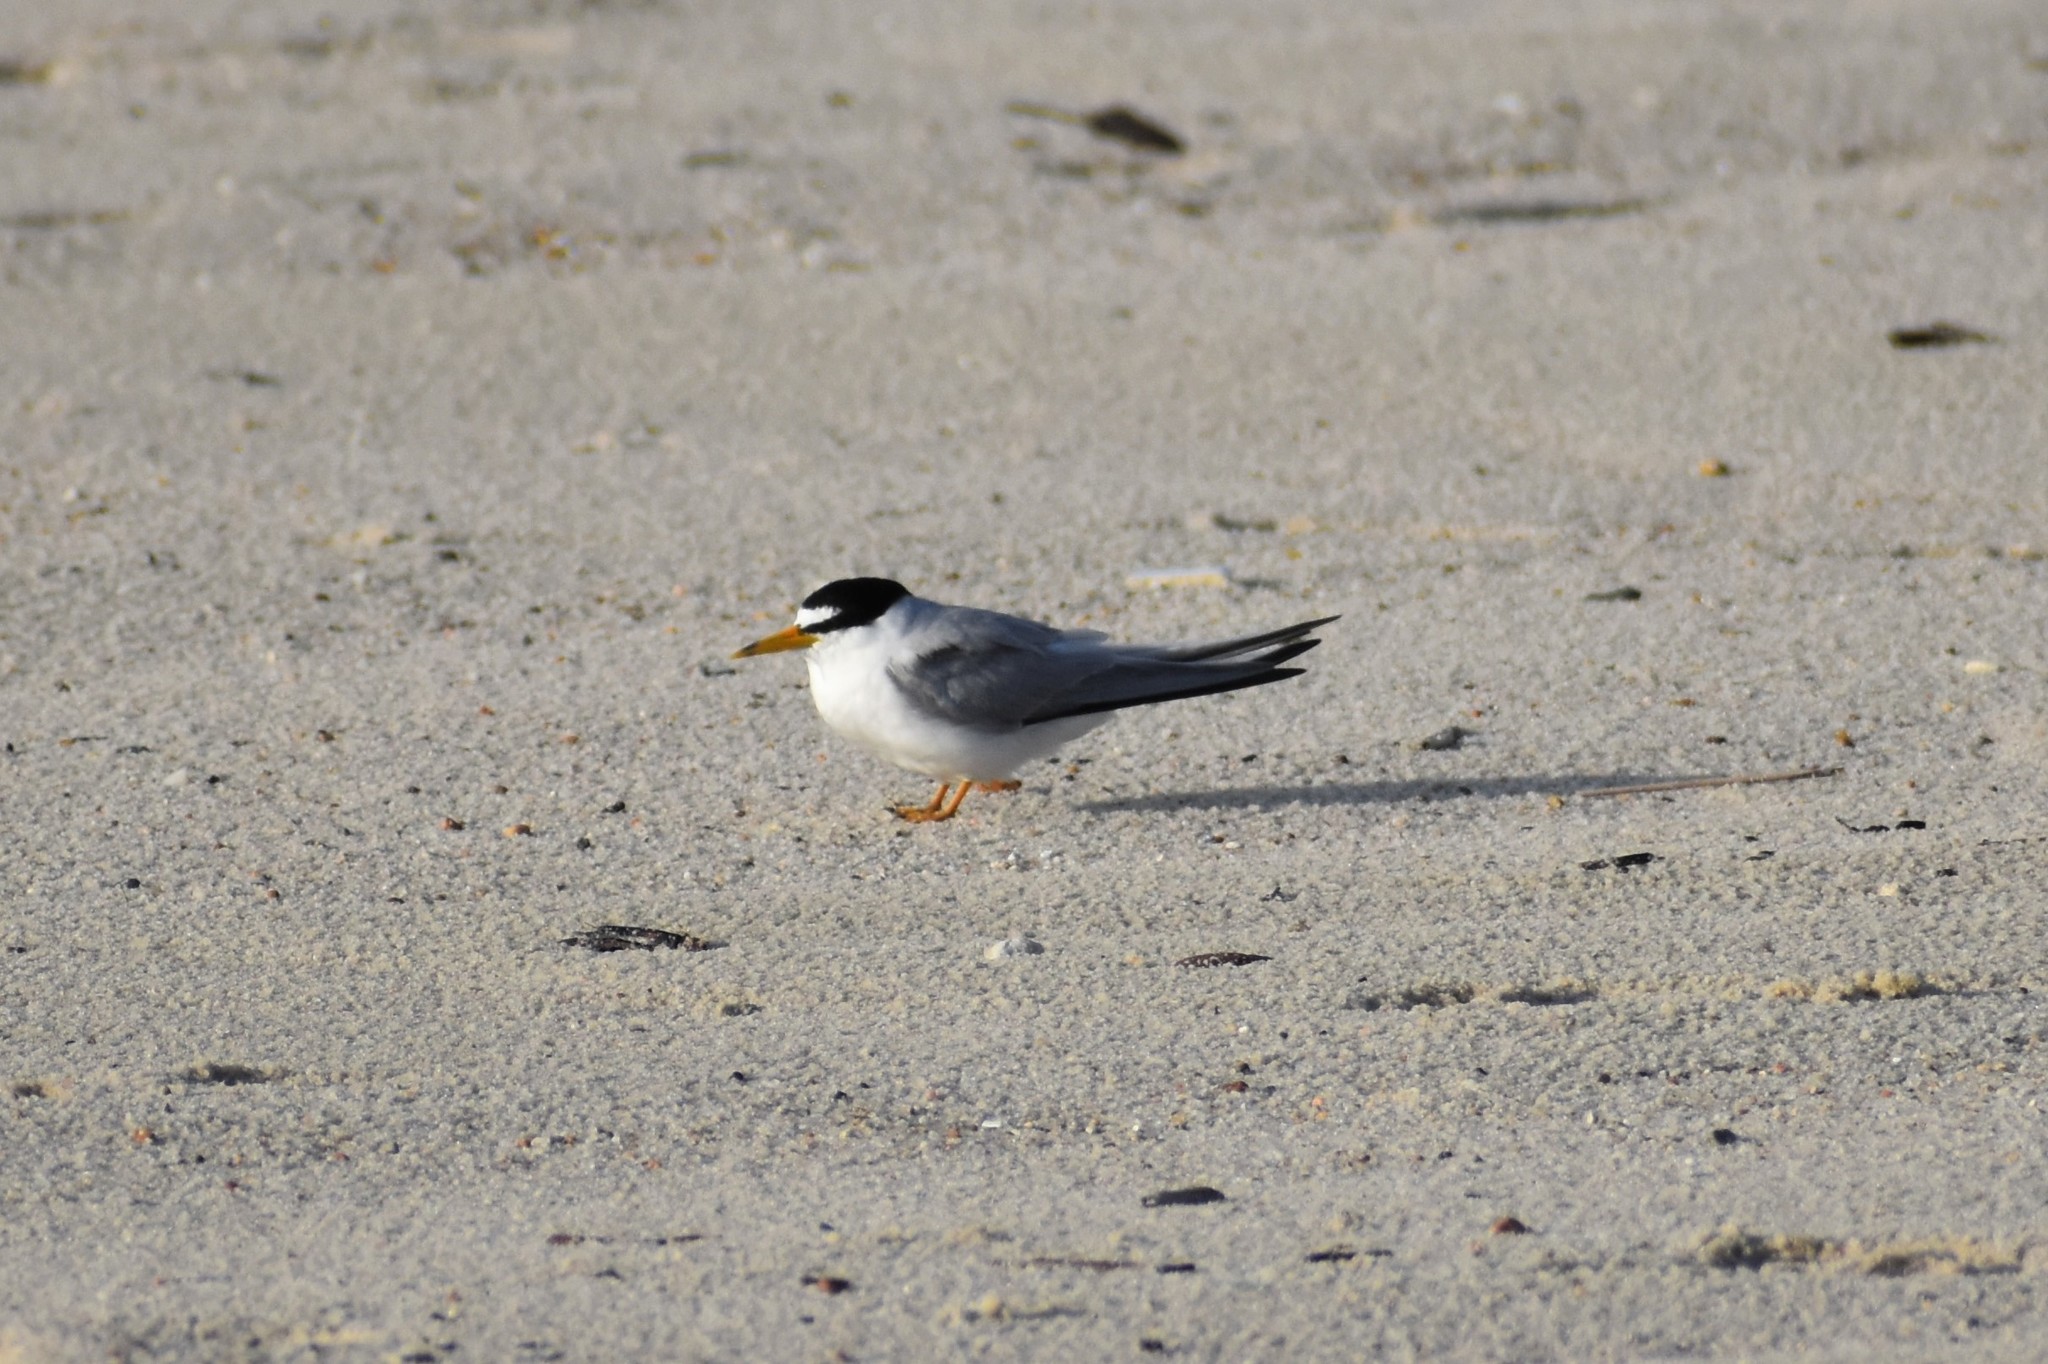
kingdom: Animalia
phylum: Chordata
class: Aves
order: Charadriiformes
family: Laridae
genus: Sternula
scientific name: Sternula antillarum
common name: Least tern
